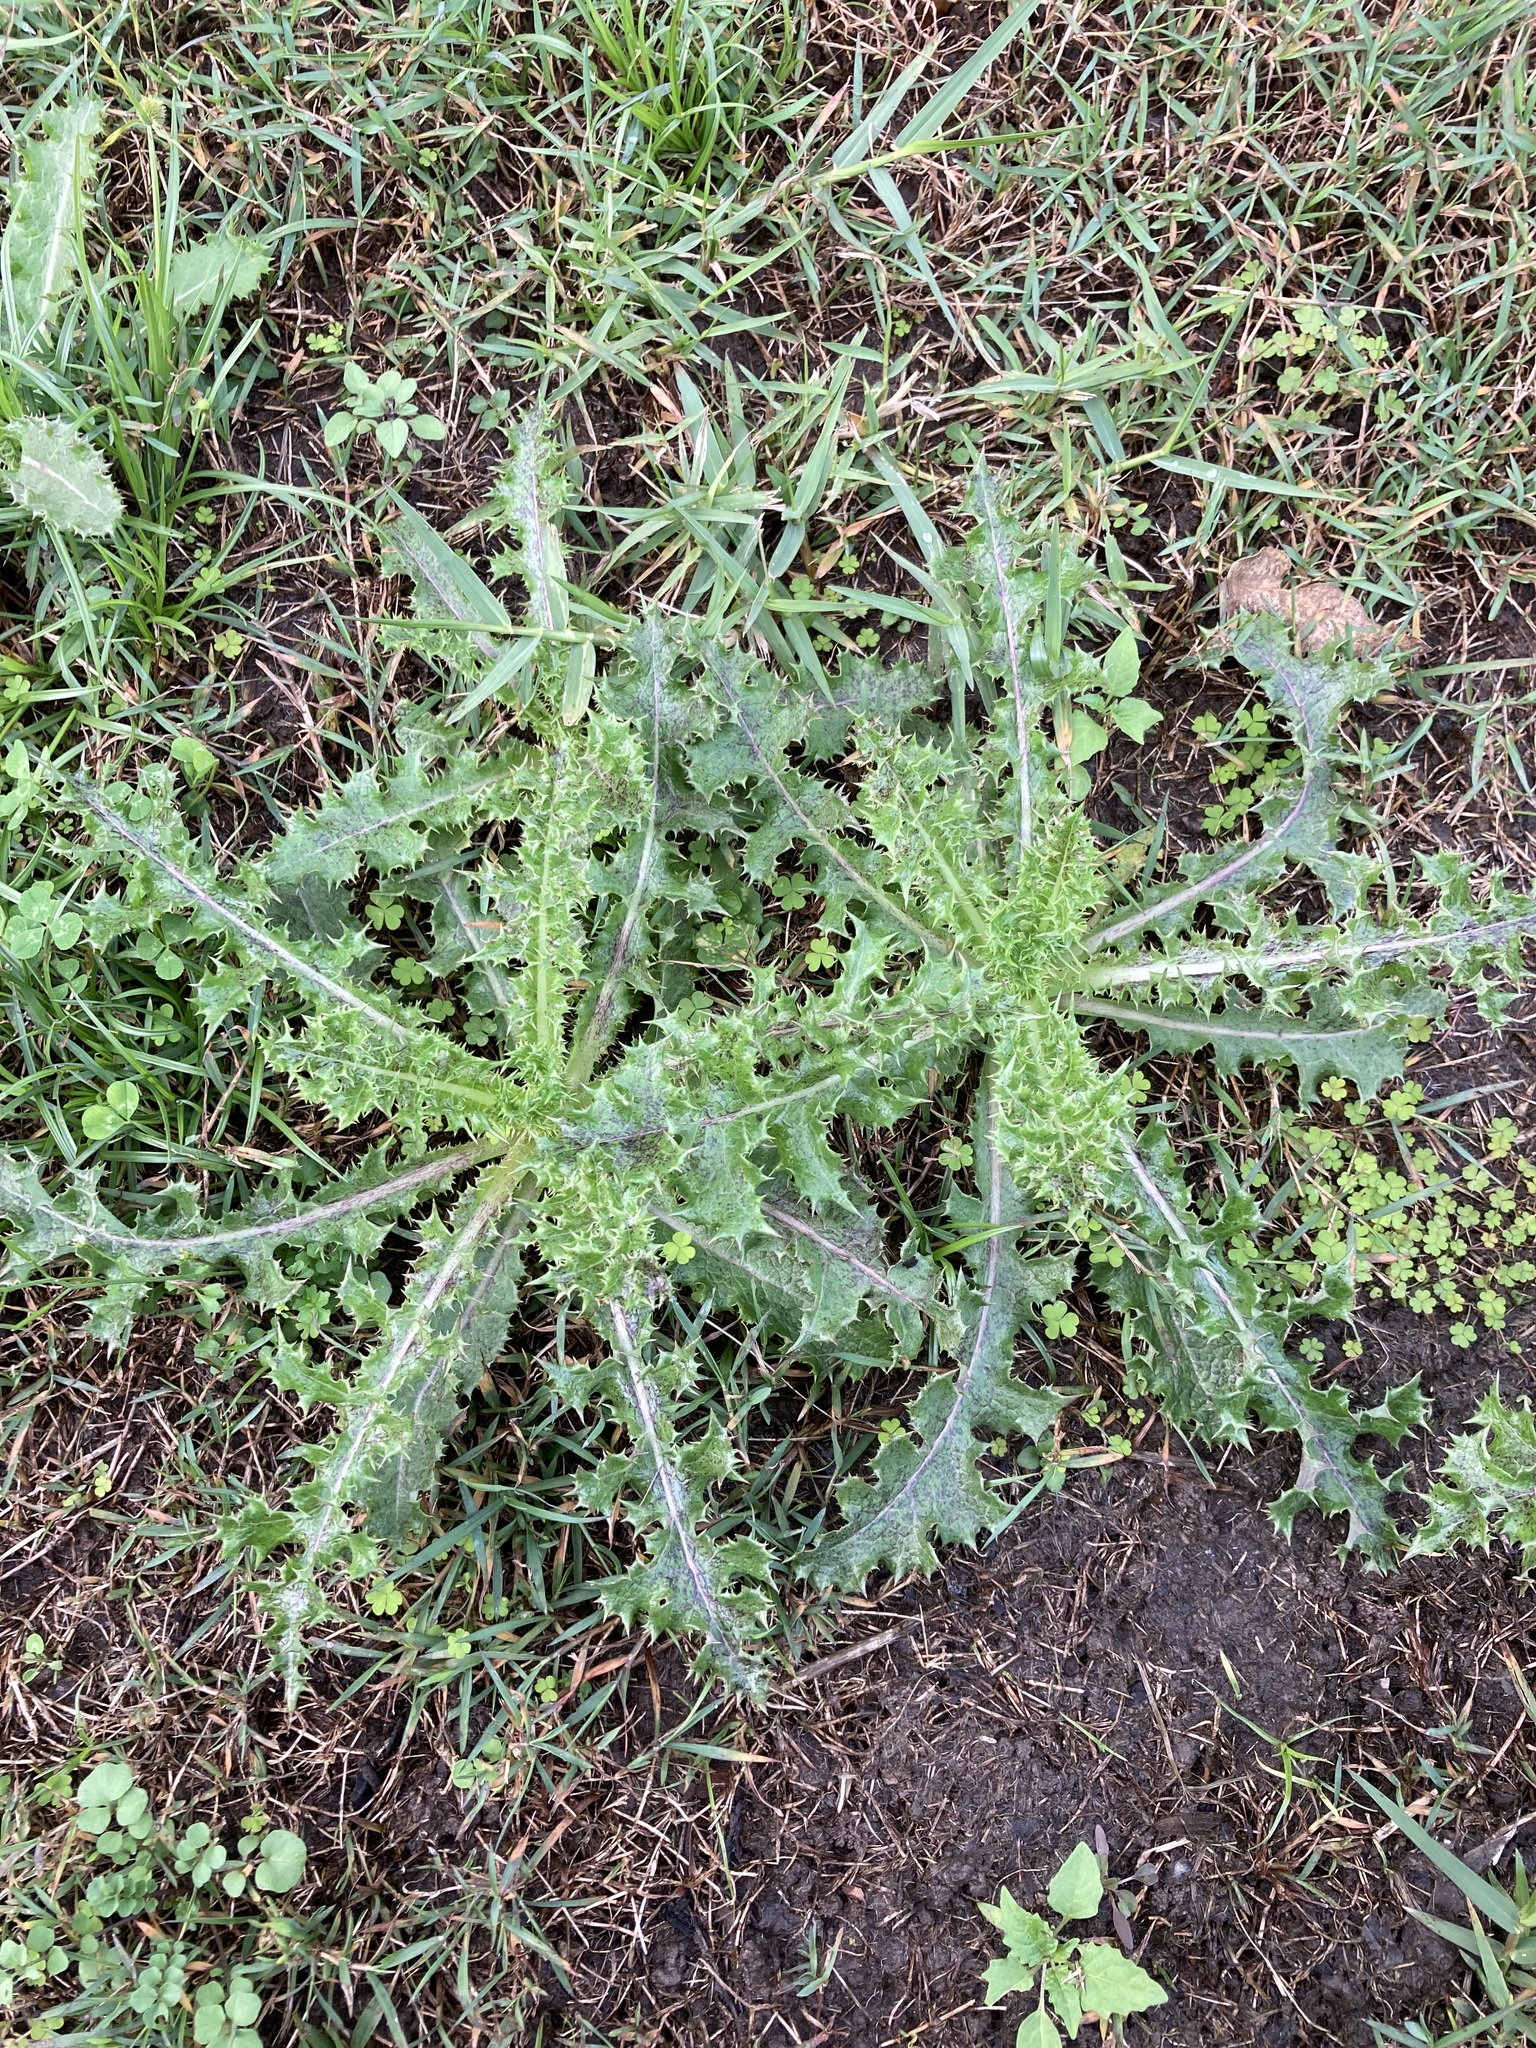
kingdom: Plantae
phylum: Tracheophyta
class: Magnoliopsida
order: Asterales
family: Asteraceae
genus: Sonchus
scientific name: Sonchus asper
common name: Prickly sow-thistle
